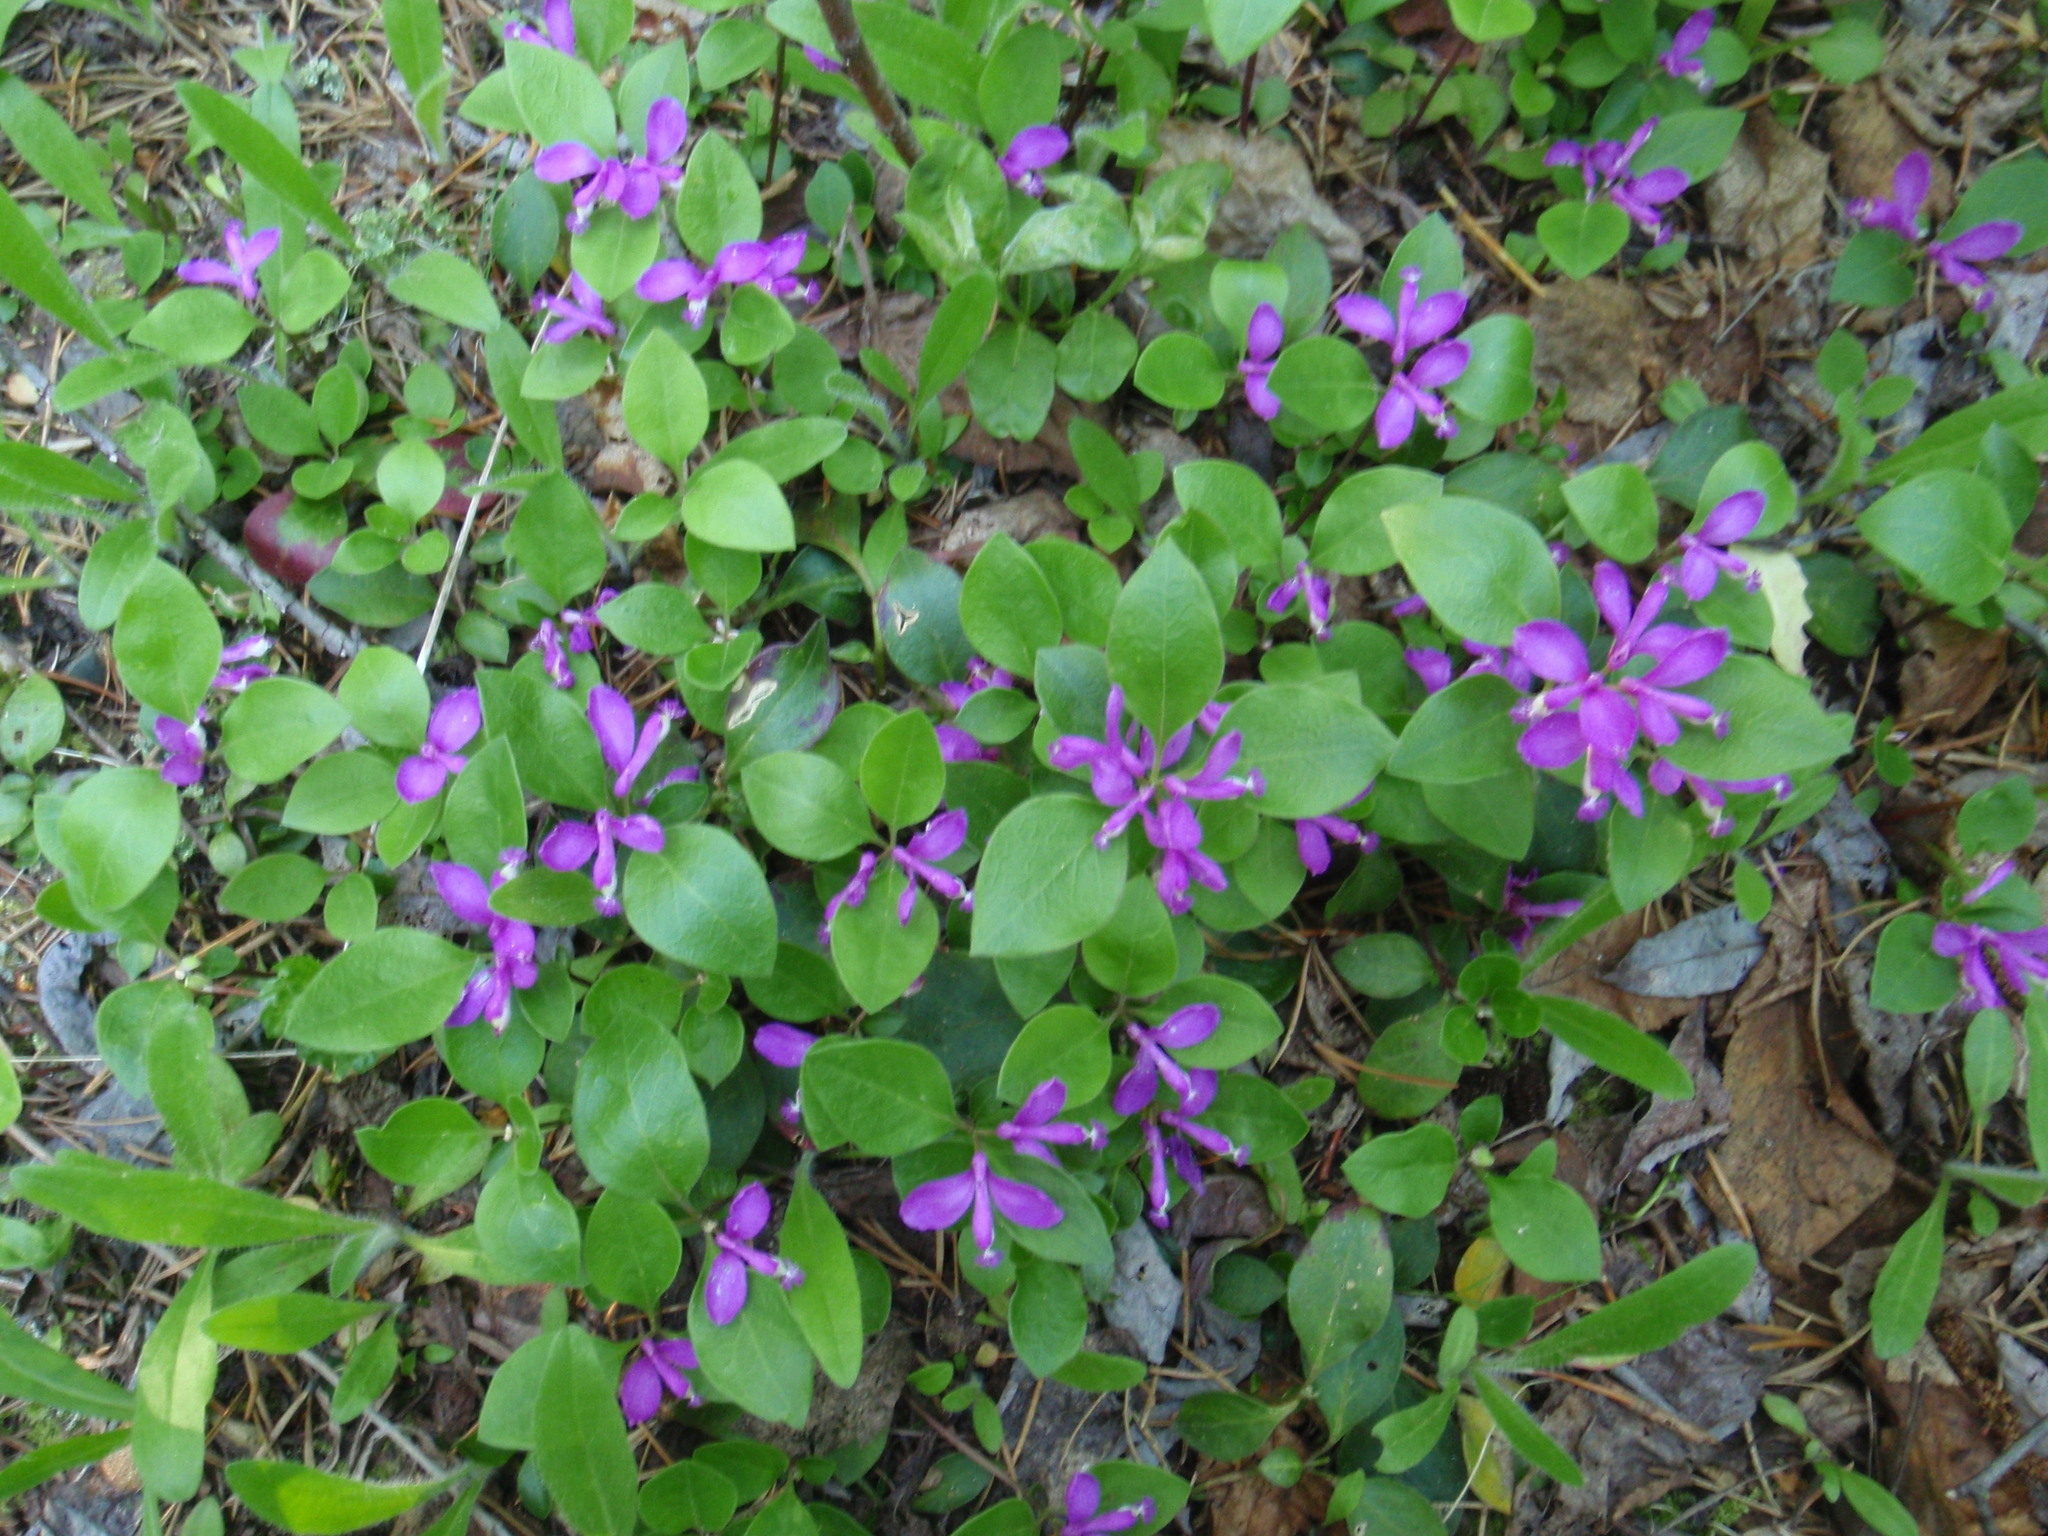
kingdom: Plantae
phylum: Tracheophyta
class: Magnoliopsida
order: Fabales
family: Polygalaceae
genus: Polygaloides
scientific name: Polygaloides paucifolia
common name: Bird-on-the-wing
